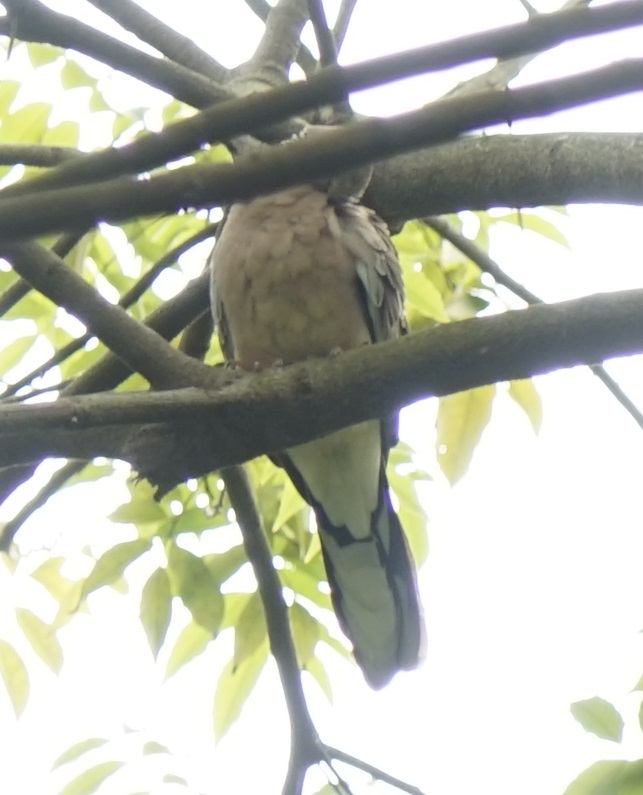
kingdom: Animalia
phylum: Chordata
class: Aves
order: Columbiformes
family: Columbidae
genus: Spilopelia
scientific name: Spilopelia chinensis
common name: Spotted dove
